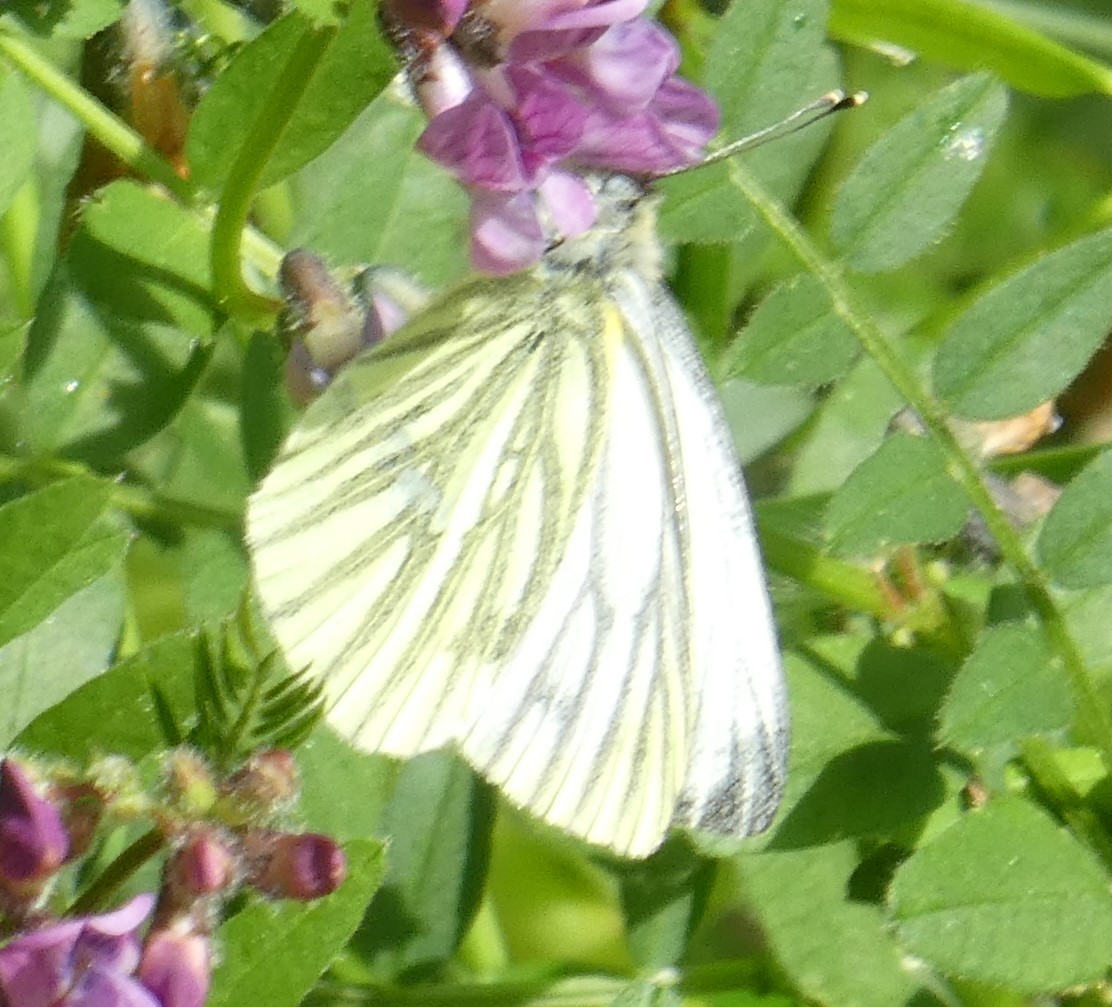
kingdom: Animalia
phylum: Arthropoda
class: Insecta
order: Lepidoptera
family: Pieridae
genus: Pieris
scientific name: Pieris napi
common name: Green-veined white
